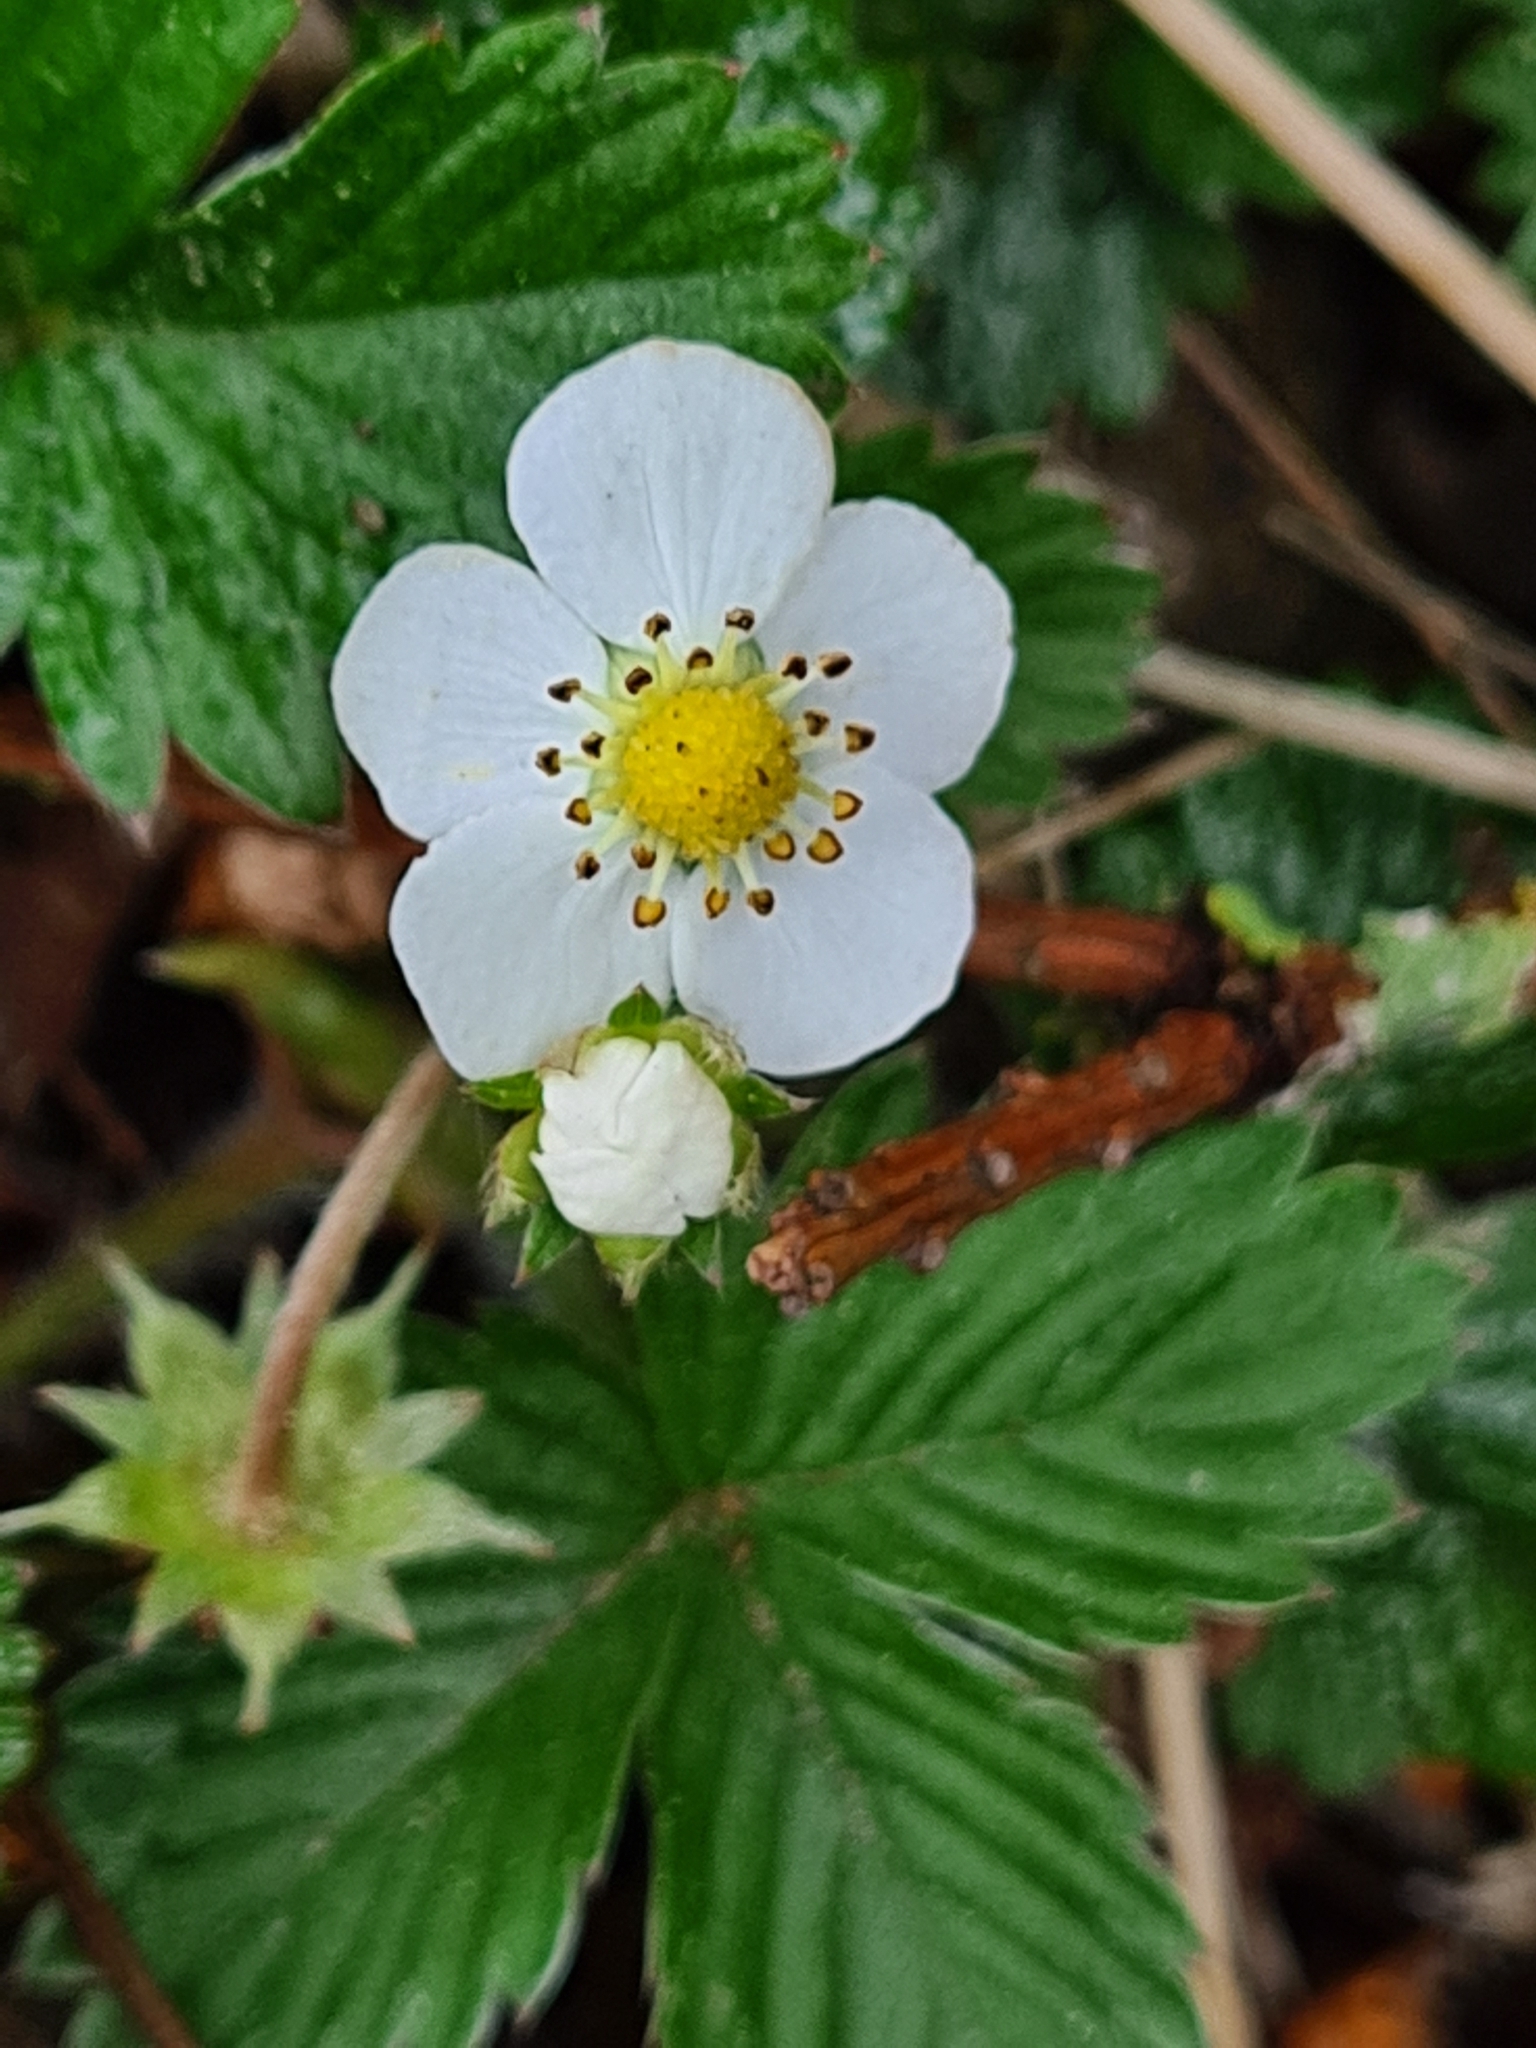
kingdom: Plantae
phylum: Tracheophyta
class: Magnoliopsida
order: Rosales
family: Rosaceae
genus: Fragaria
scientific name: Fragaria vesca
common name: Wild strawberry
